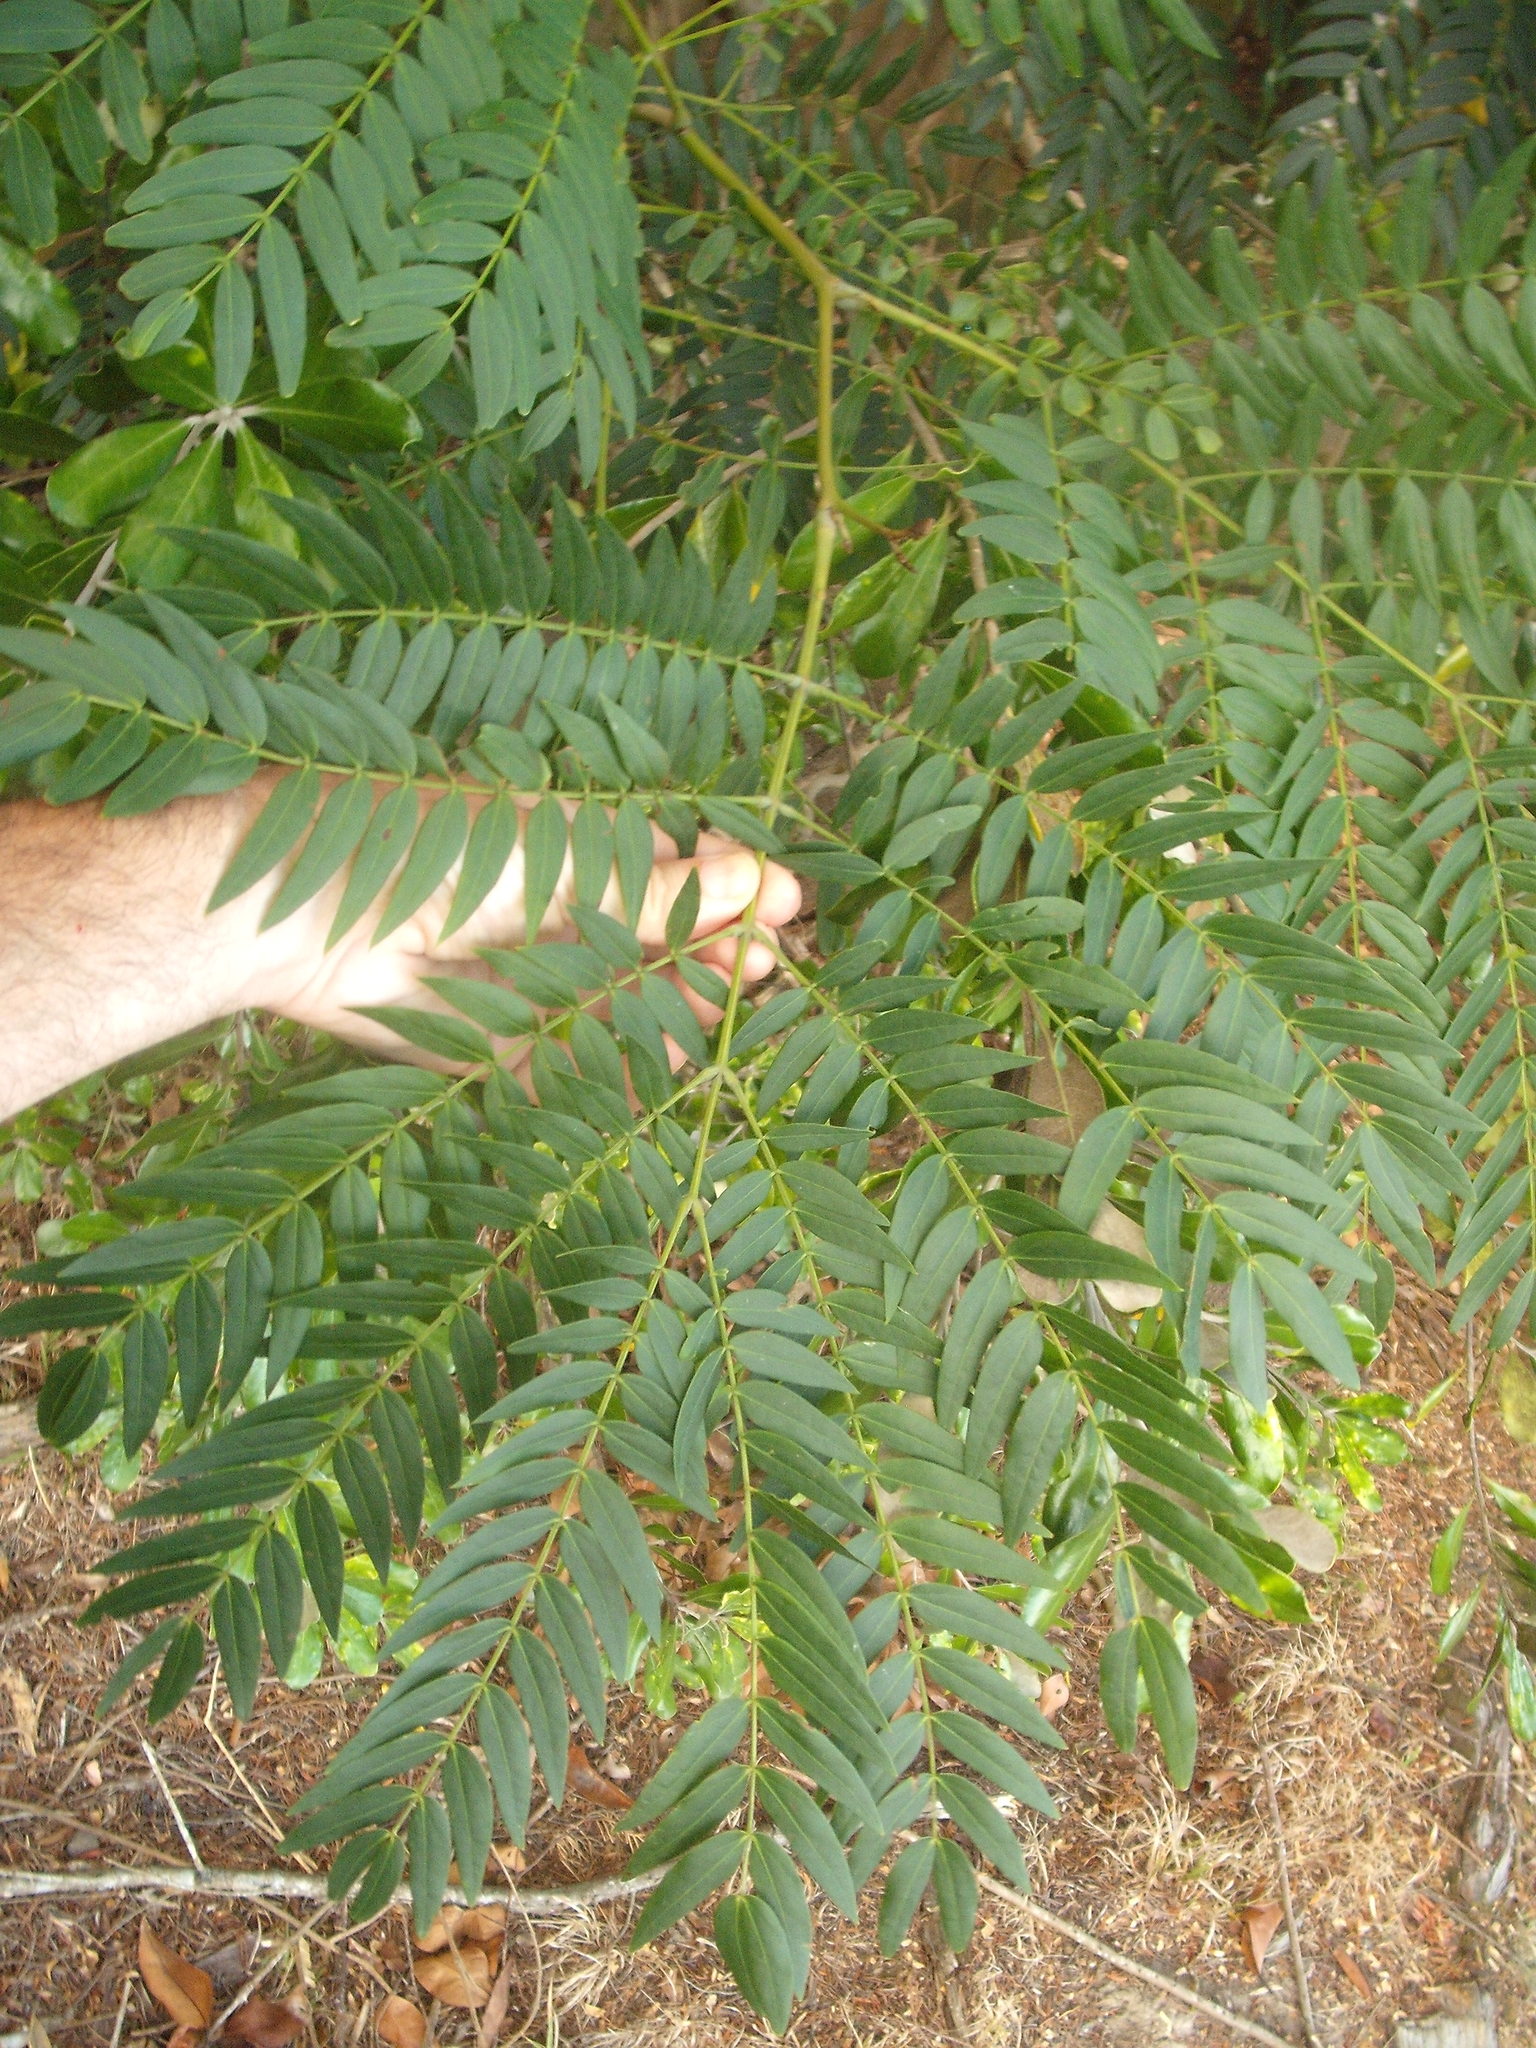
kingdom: Plantae
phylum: Tracheophyta
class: Magnoliopsida
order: Fabales
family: Fabaceae
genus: Acacia
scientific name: Acacia elata
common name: Cedar wattle
